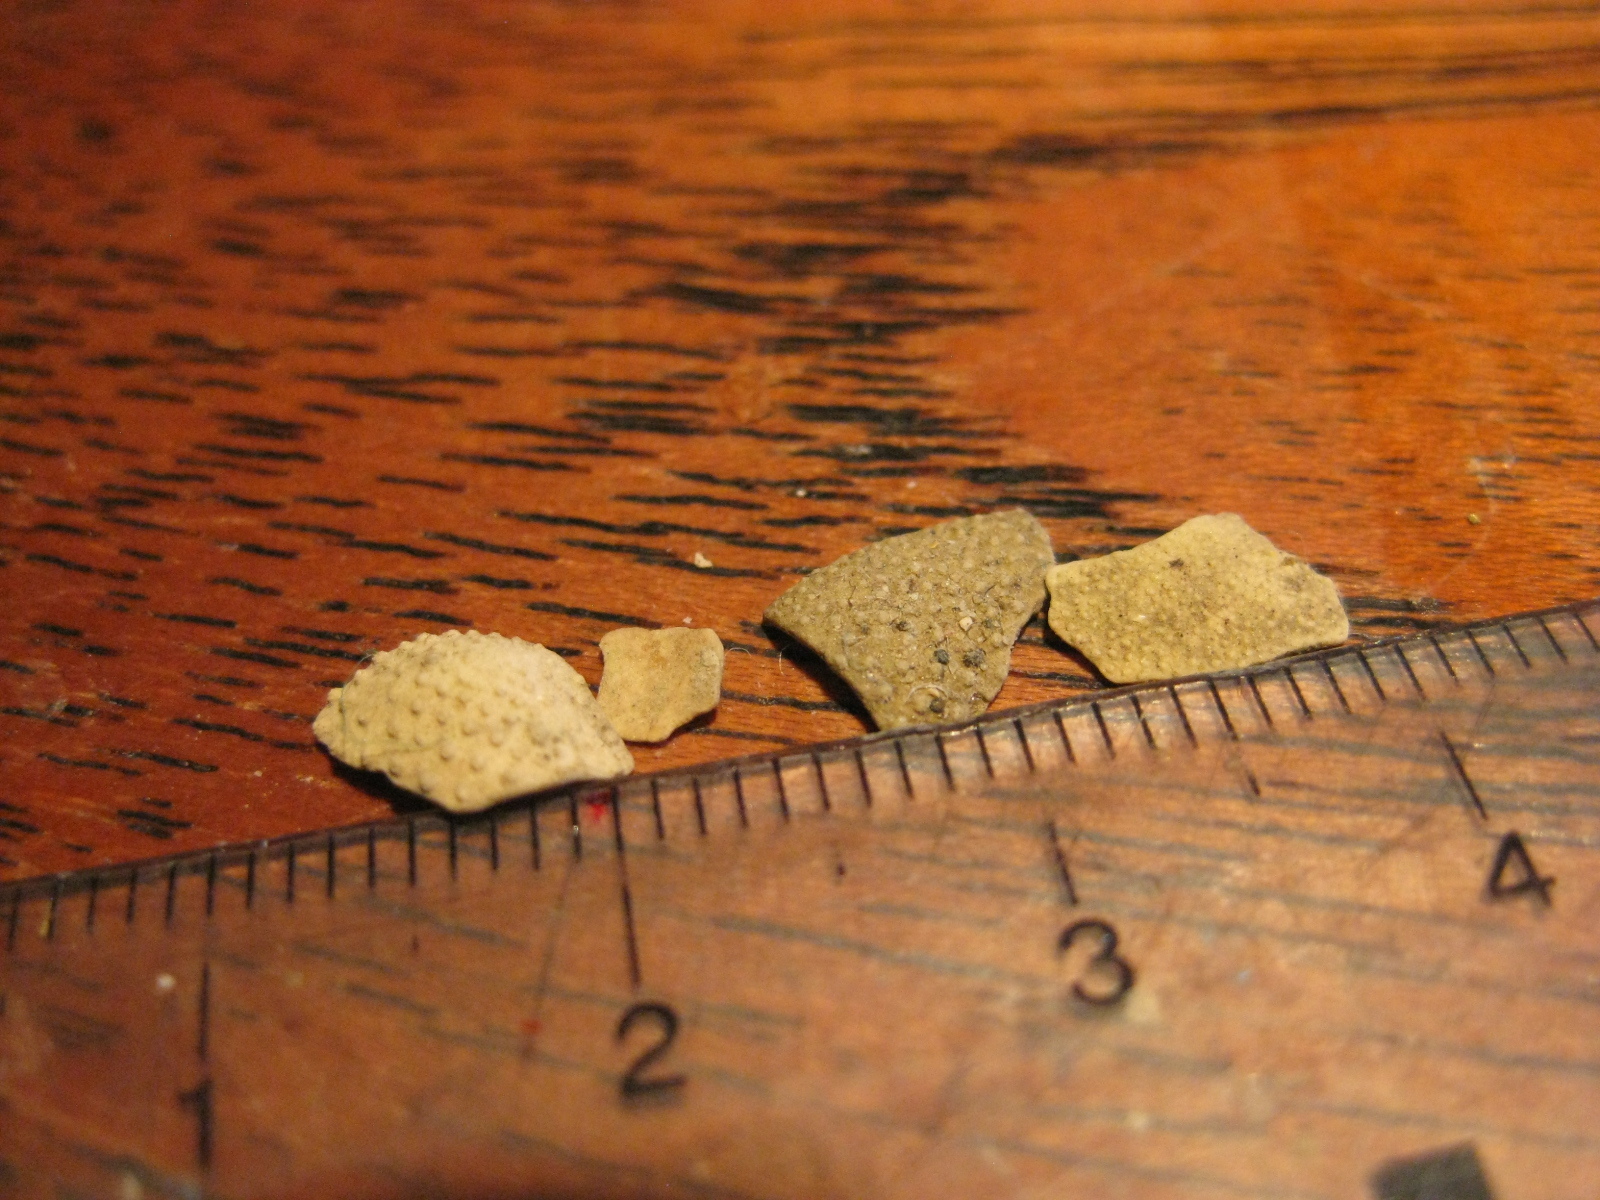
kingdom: Animalia
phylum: Echinodermata
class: Echinoidea
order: Spatangoida
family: Loveniidae
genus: Echinocardium
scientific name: Echinocardium cordatum
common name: Heart-urchin
